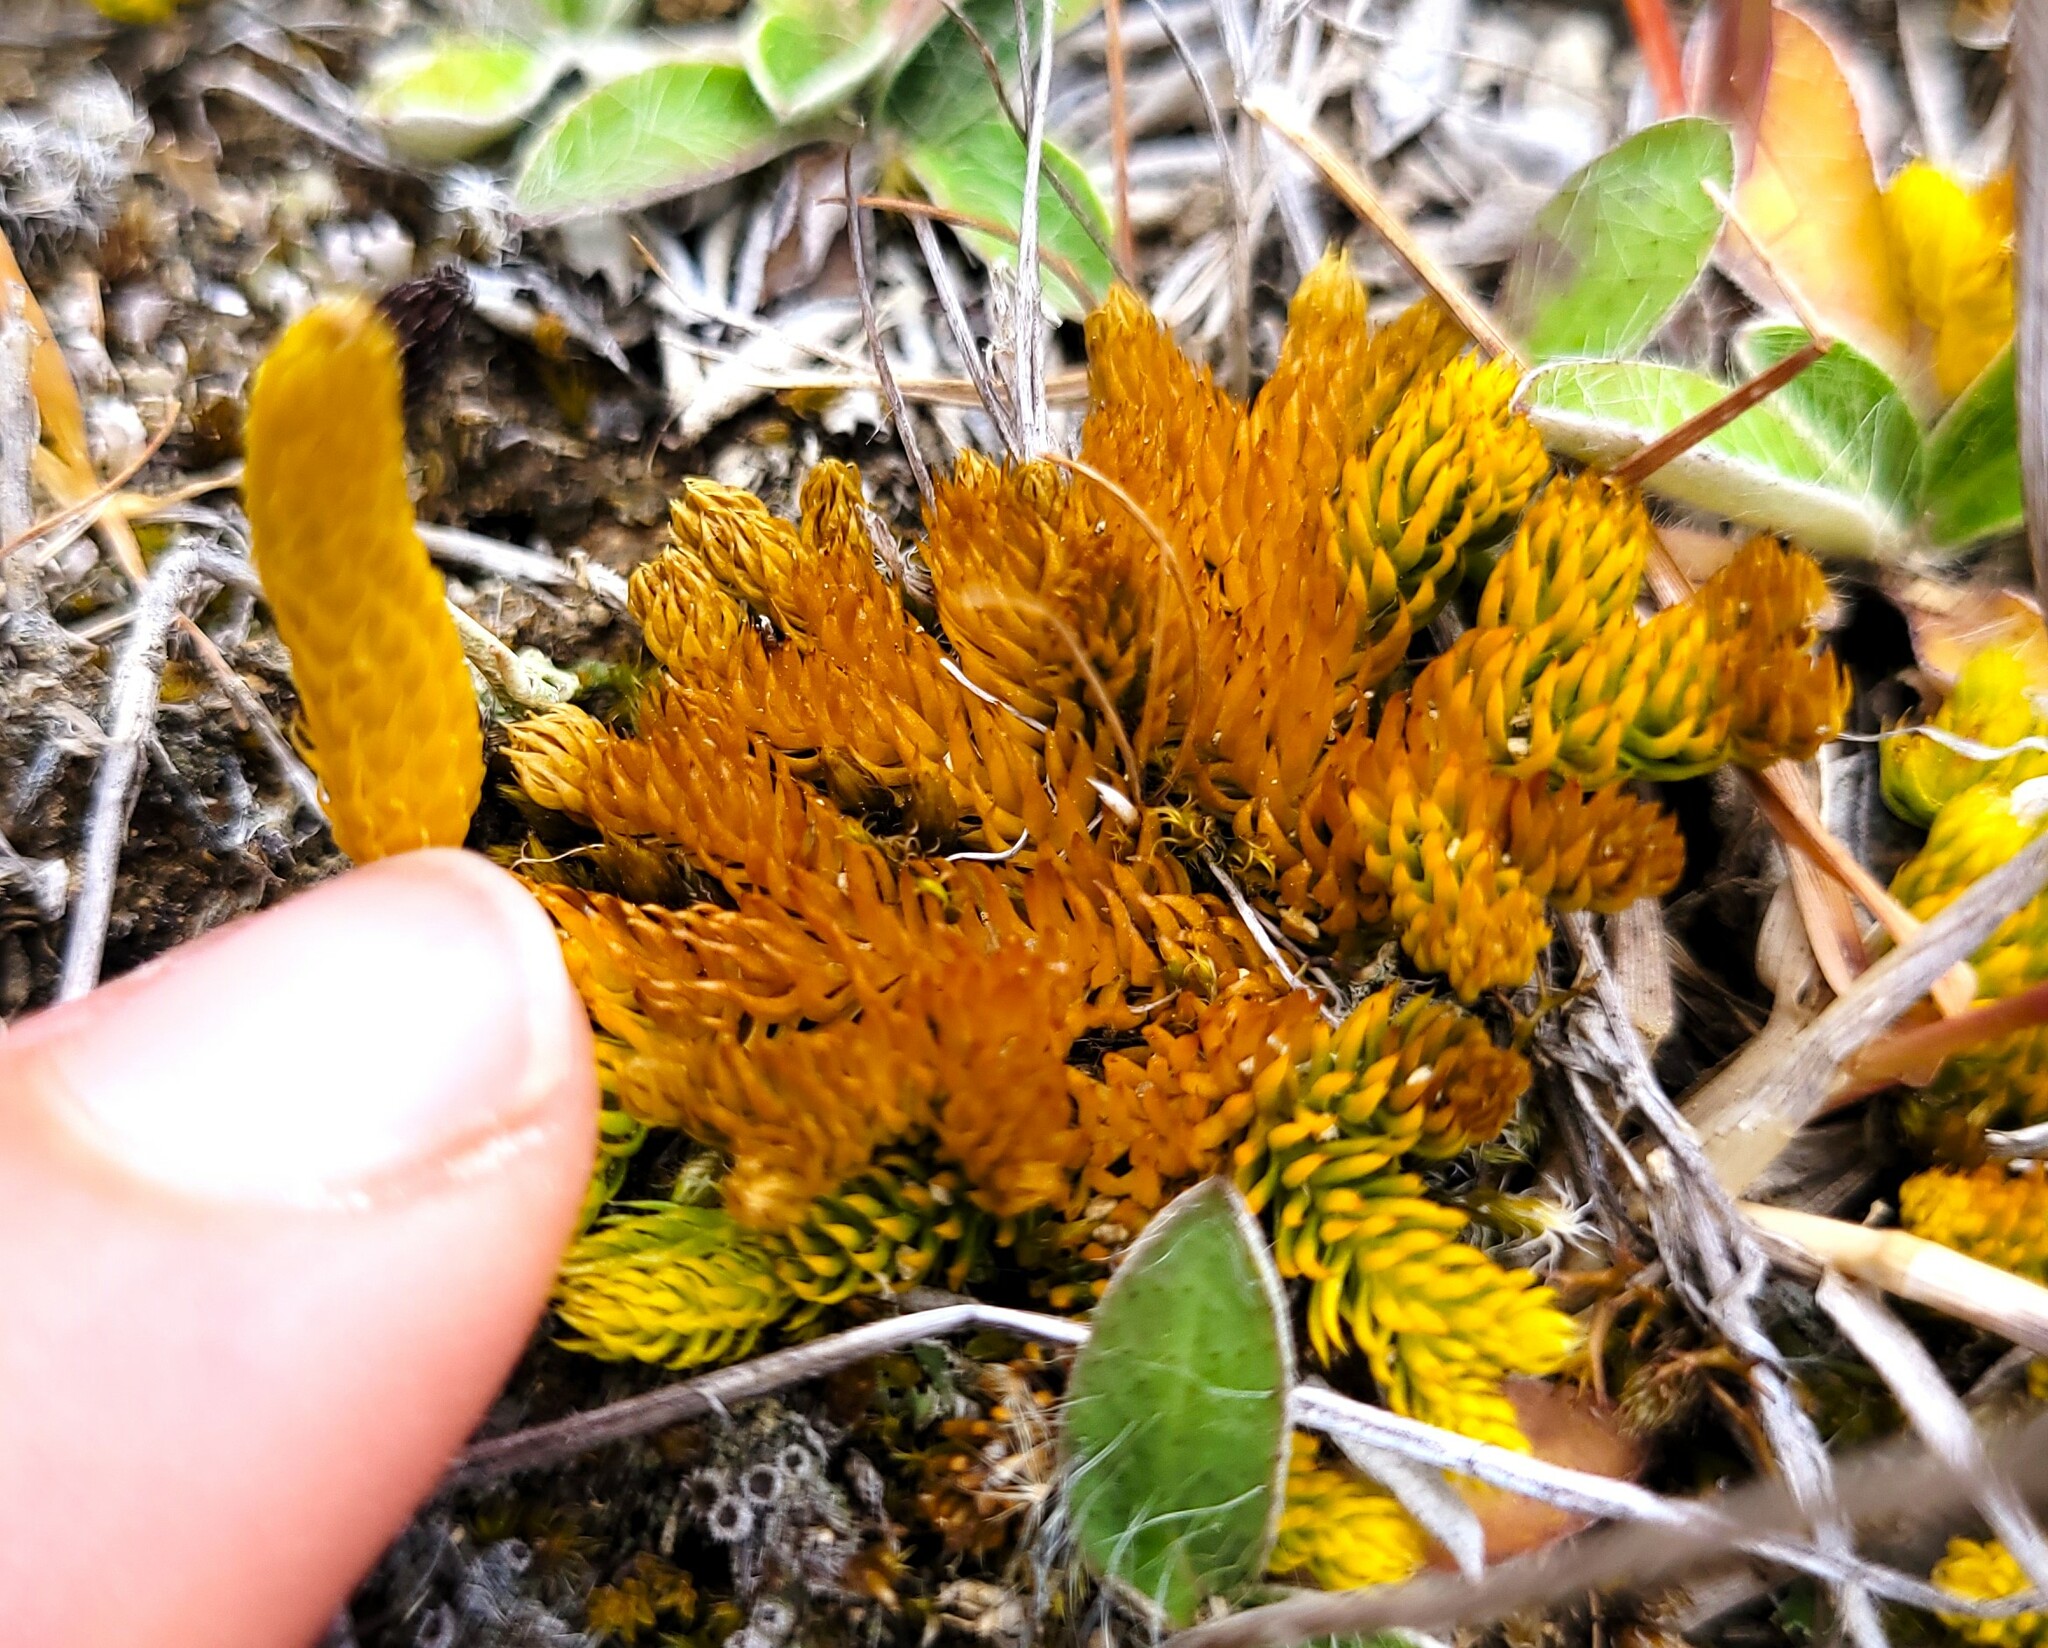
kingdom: Plantae
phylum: Tracheophyta
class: Lycopodiopsida
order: Lycopodiales
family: Lycopodiaceae
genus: Austrolycopodium
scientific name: Austrolycopodium fastigiatum
